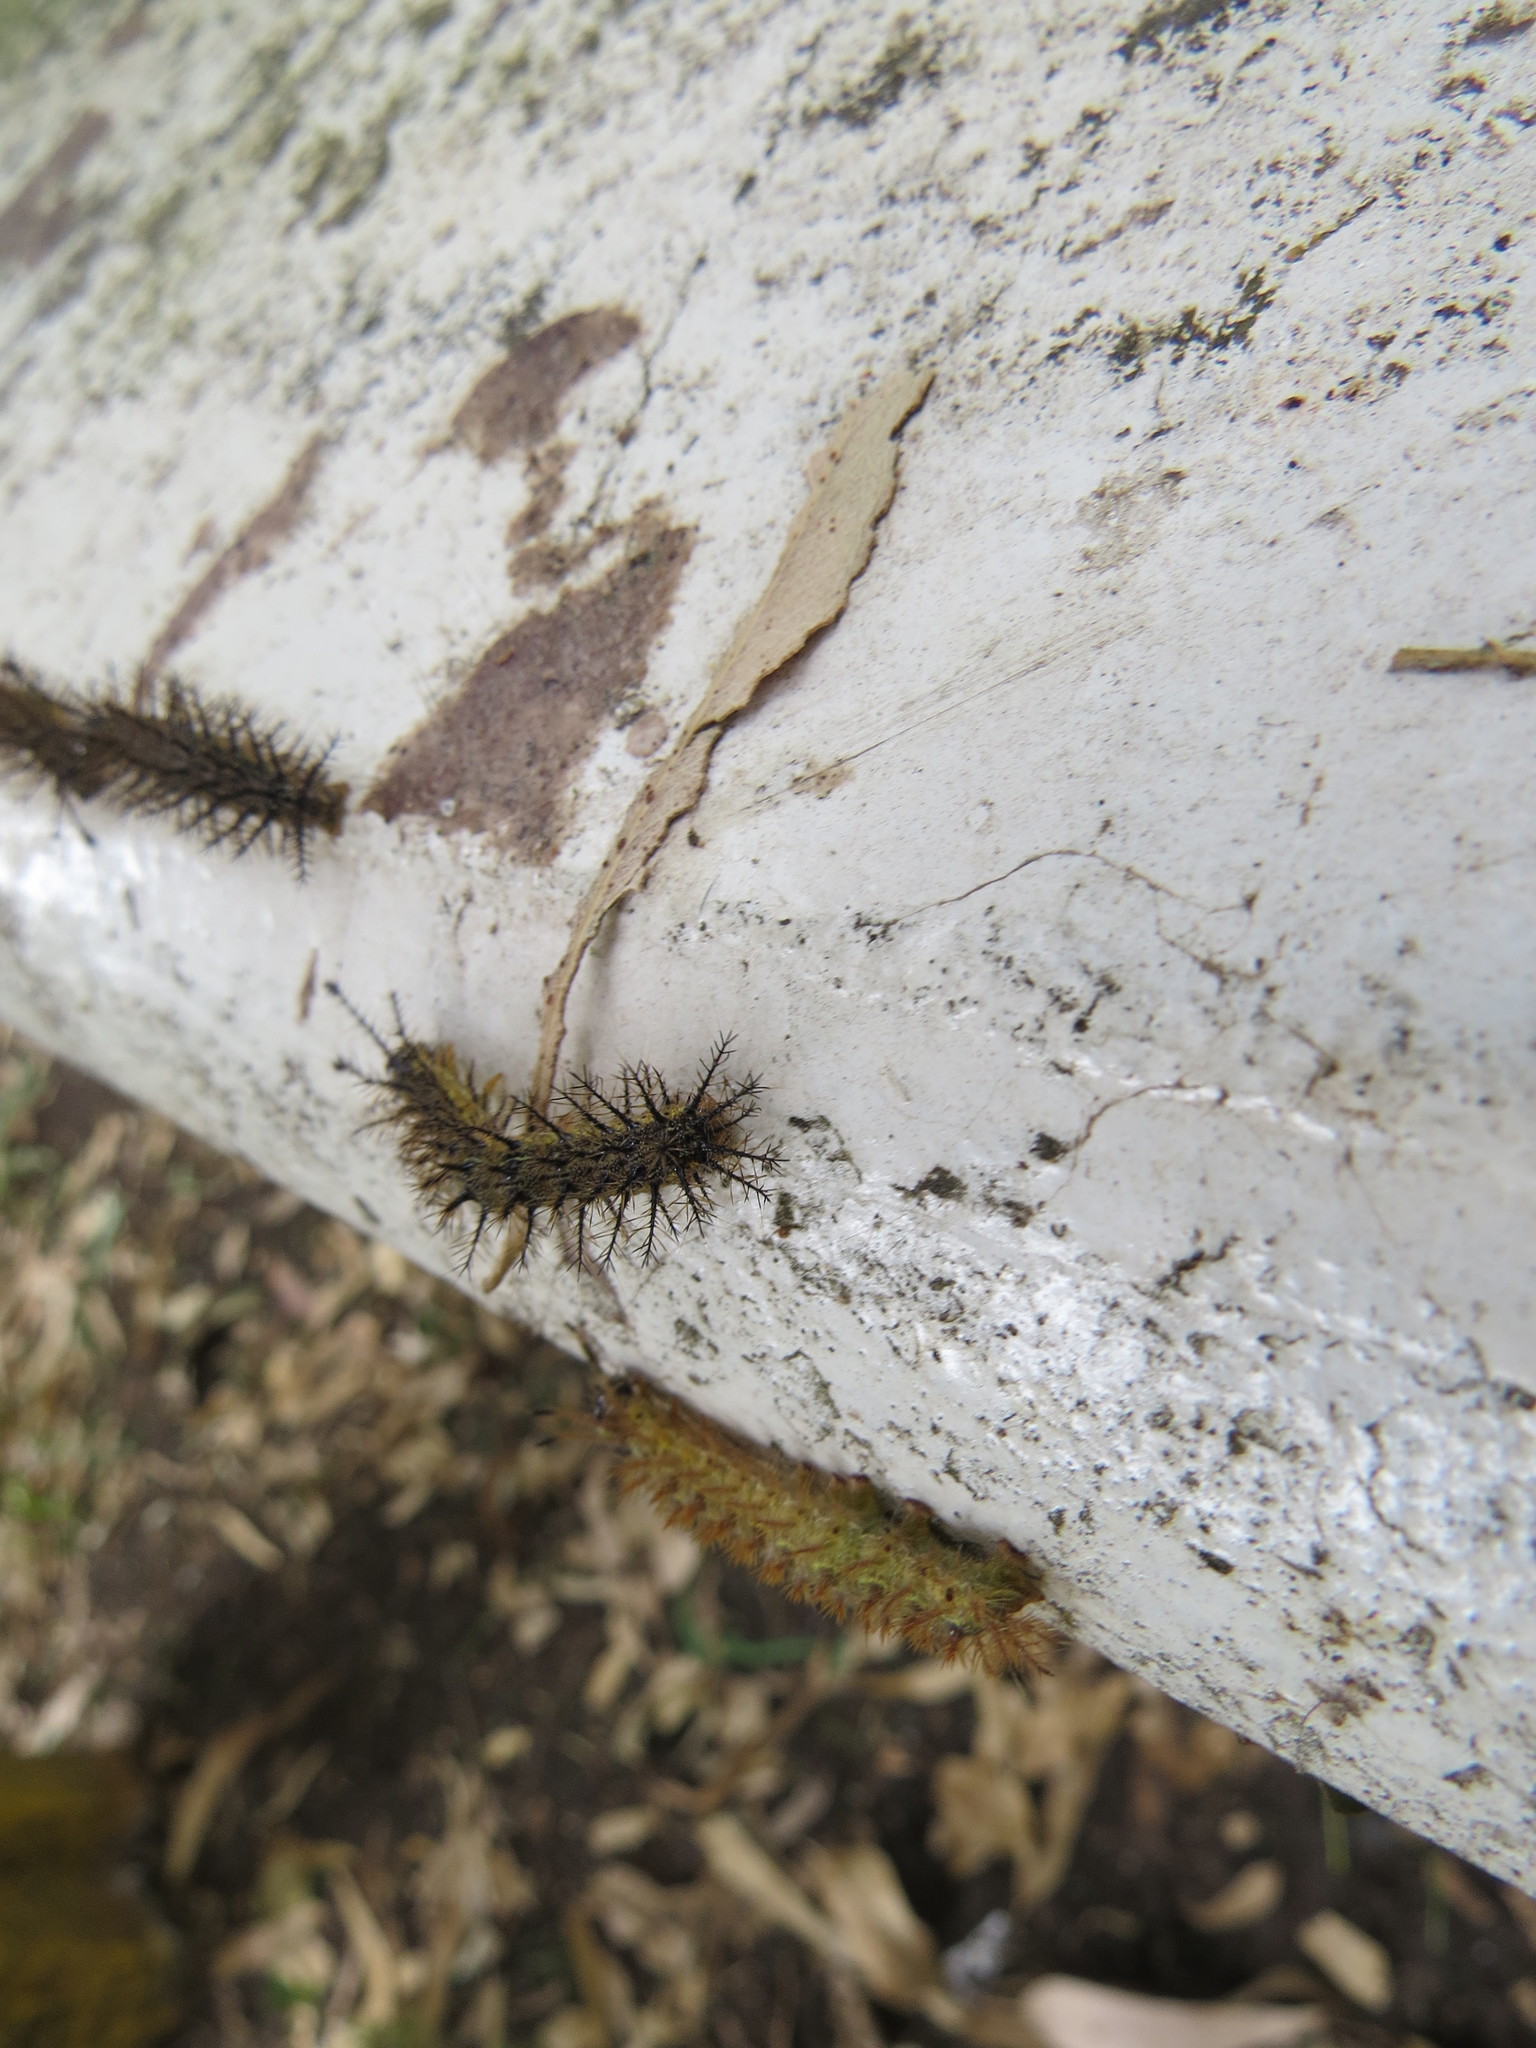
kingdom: Animalia
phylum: Arthropoda
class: Insecta
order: Lepidoptera
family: Saturniidae
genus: Hylesia
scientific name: Hylesia nigricans
